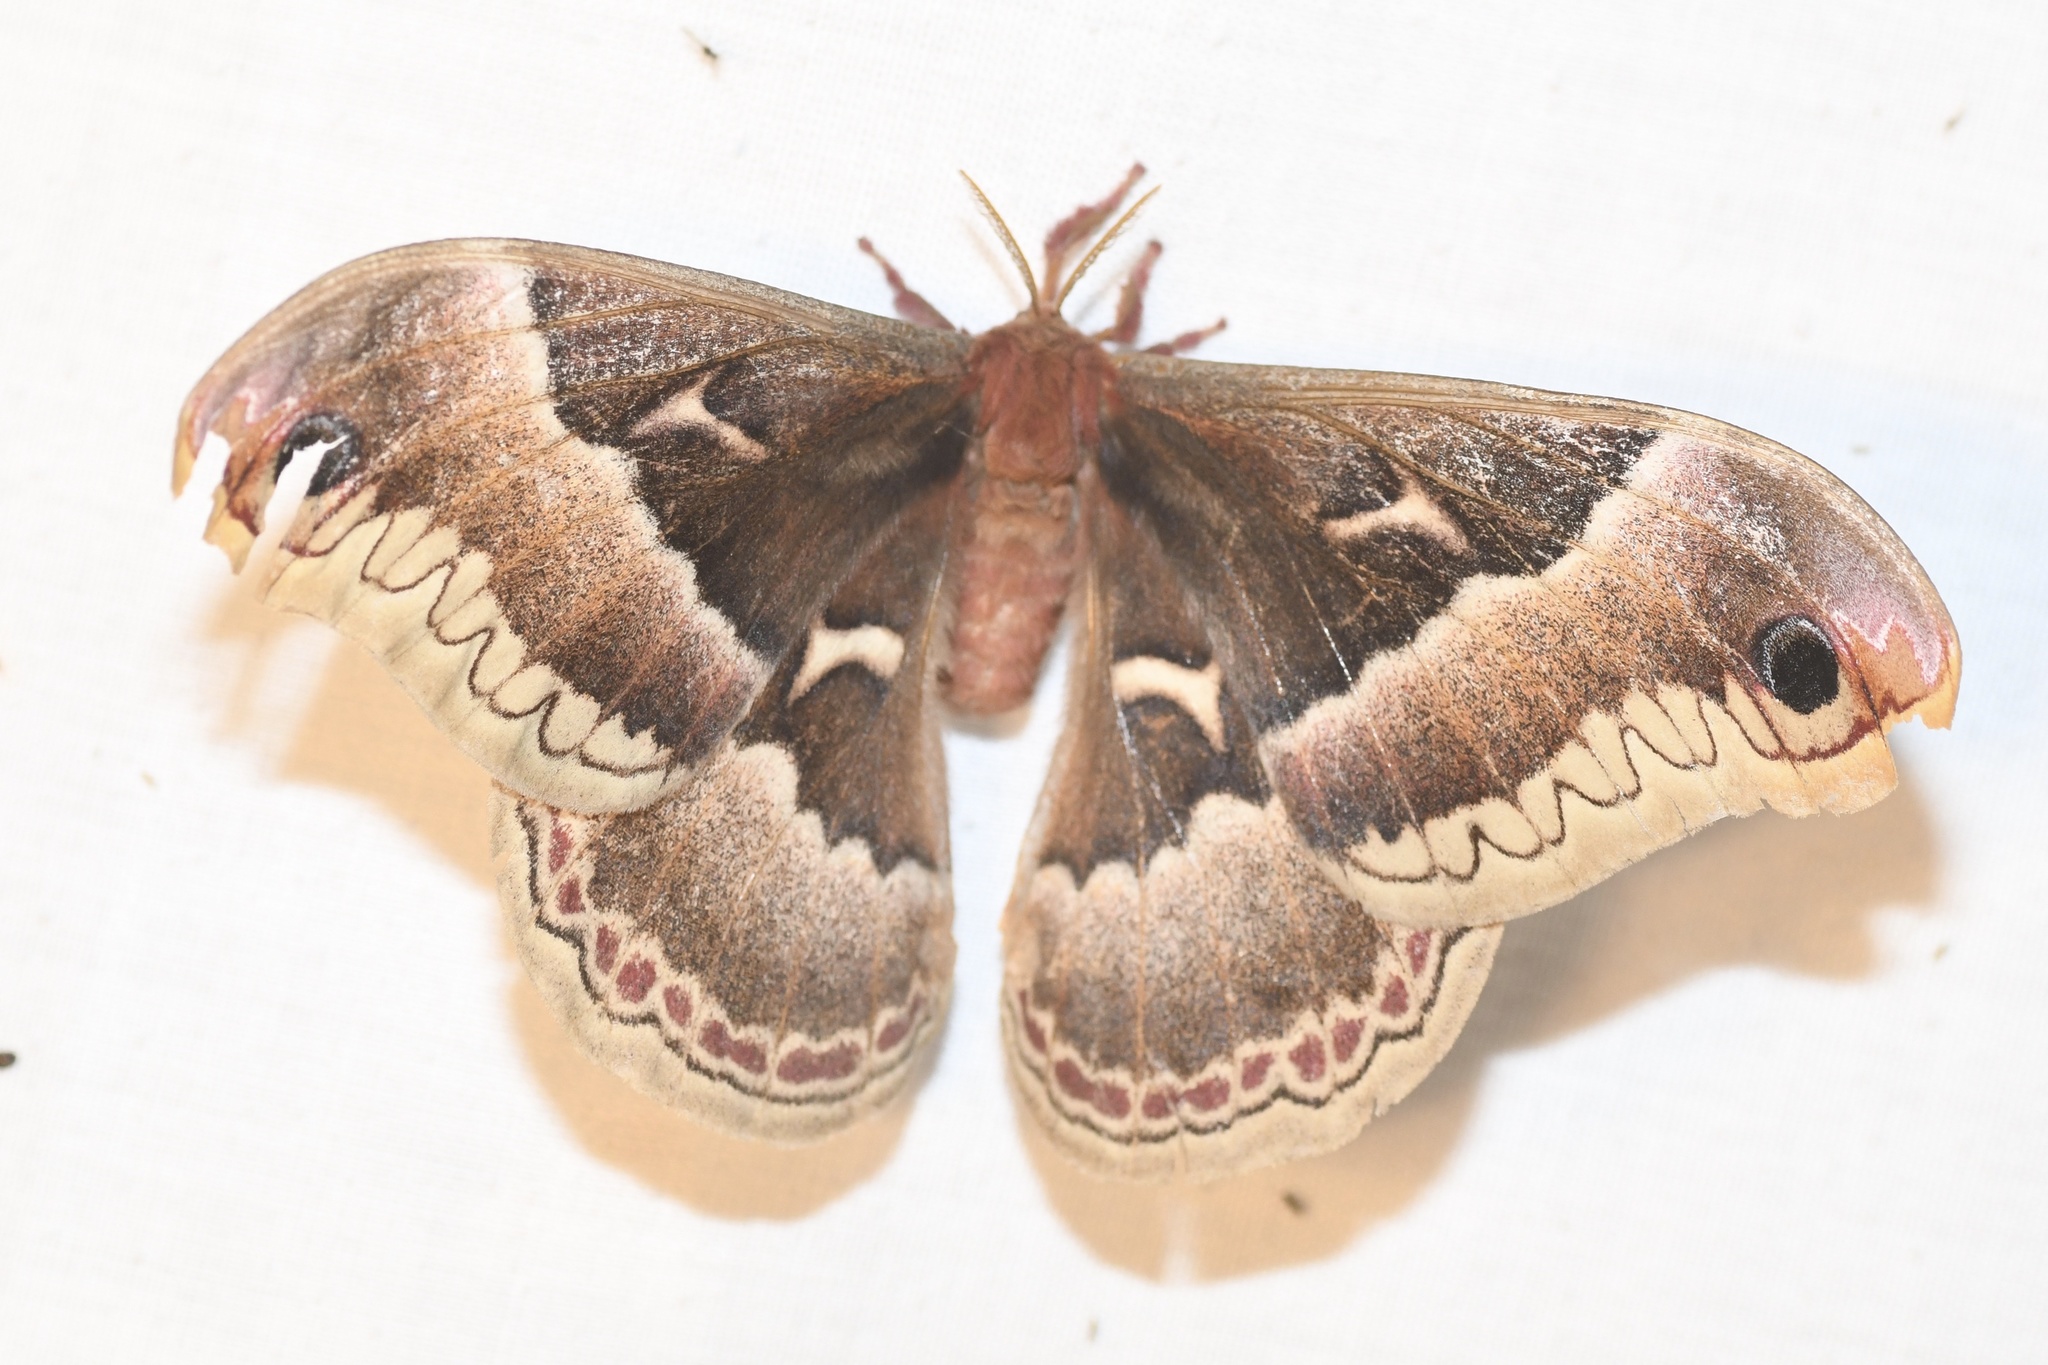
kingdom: Animalia
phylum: Arthropoda
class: Insecta
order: Lepidoptera
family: Saturniidae
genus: Callosamia
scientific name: Callosamia promethea
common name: Promethea silkmoth
